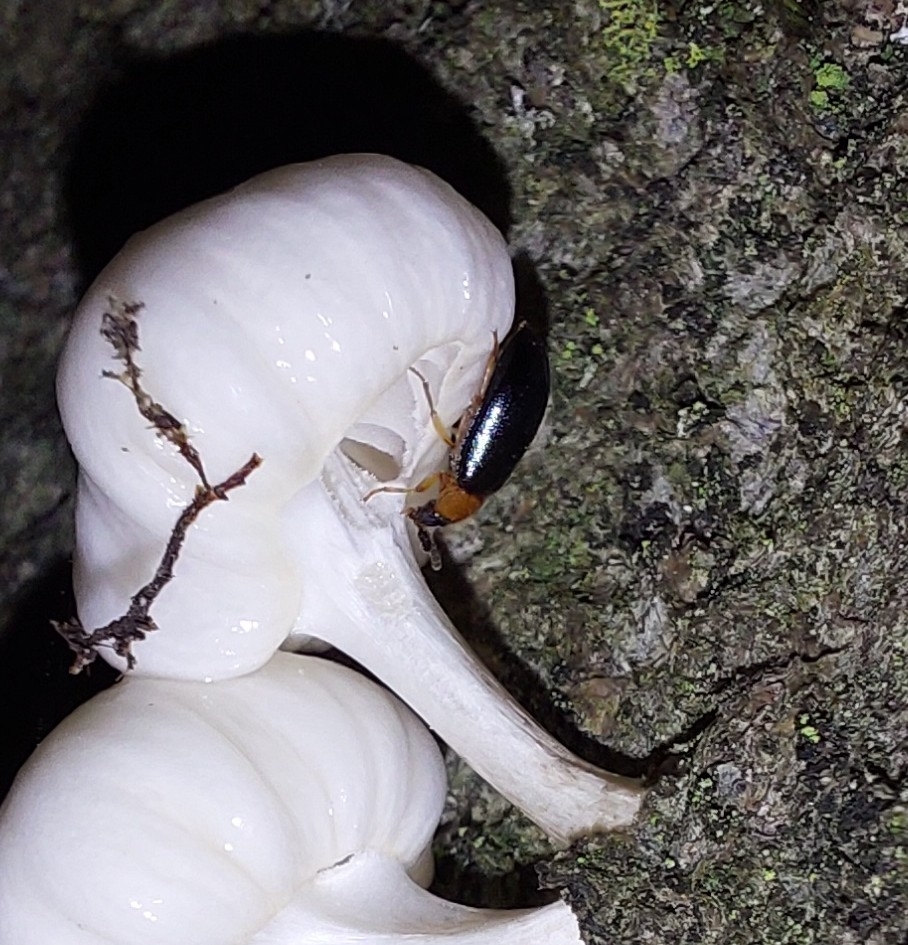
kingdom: Animalia
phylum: Arthropoda
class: Insecta
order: Coleoptera
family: Tetratomidae
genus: Tetratoma
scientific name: Tetratoma fungorum
